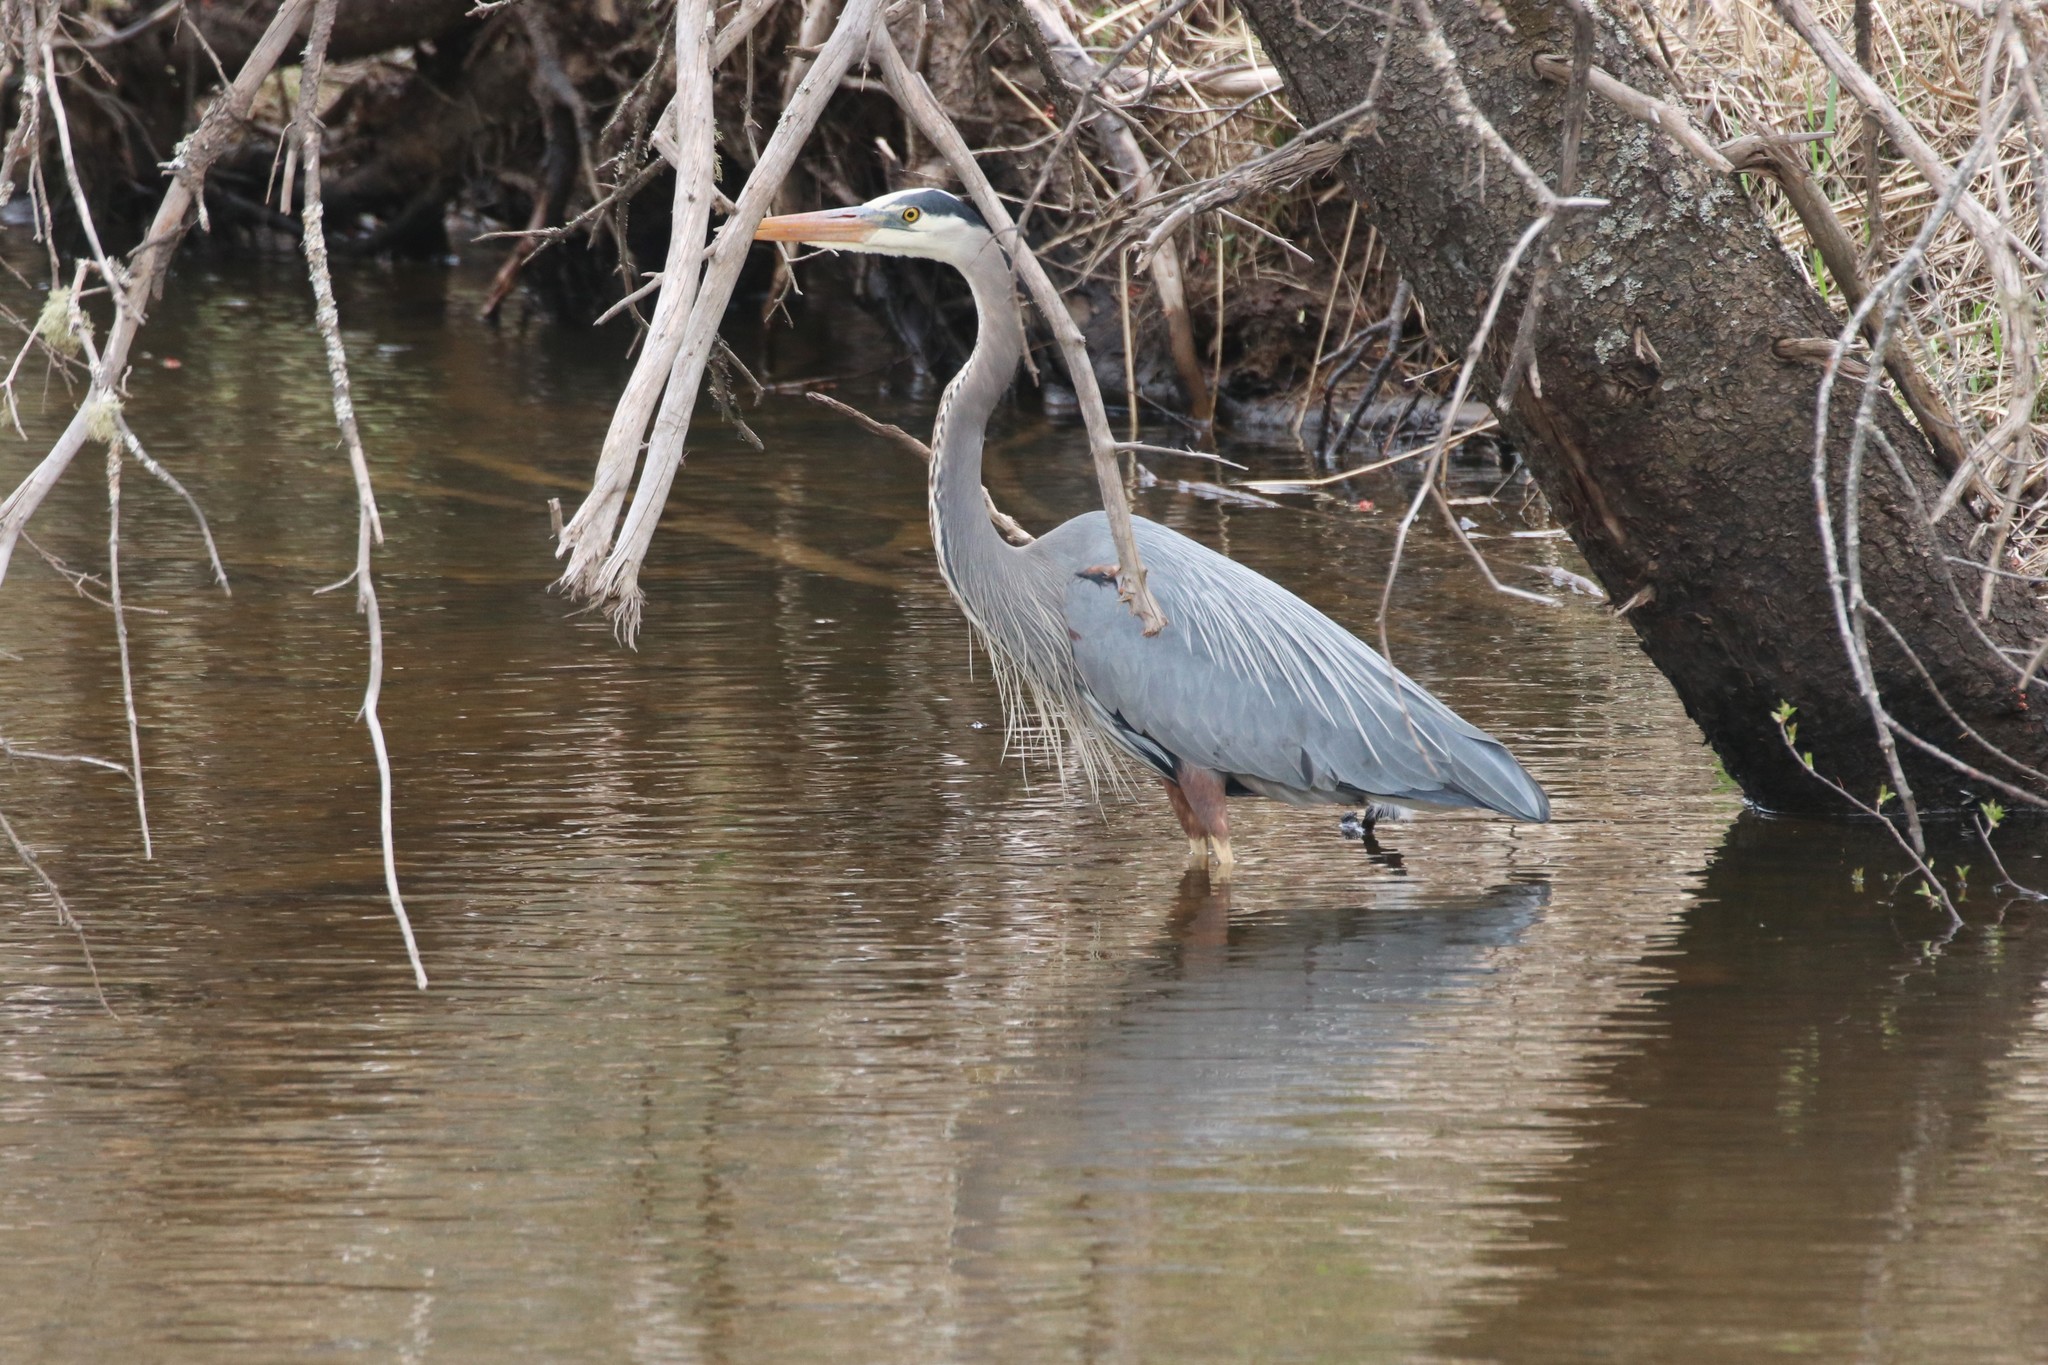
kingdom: Animalia
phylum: Chordata
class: Aves
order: Pelecaniformes
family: Ardeidae
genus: Ardea
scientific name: Ardea herodias
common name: Great blue heron
